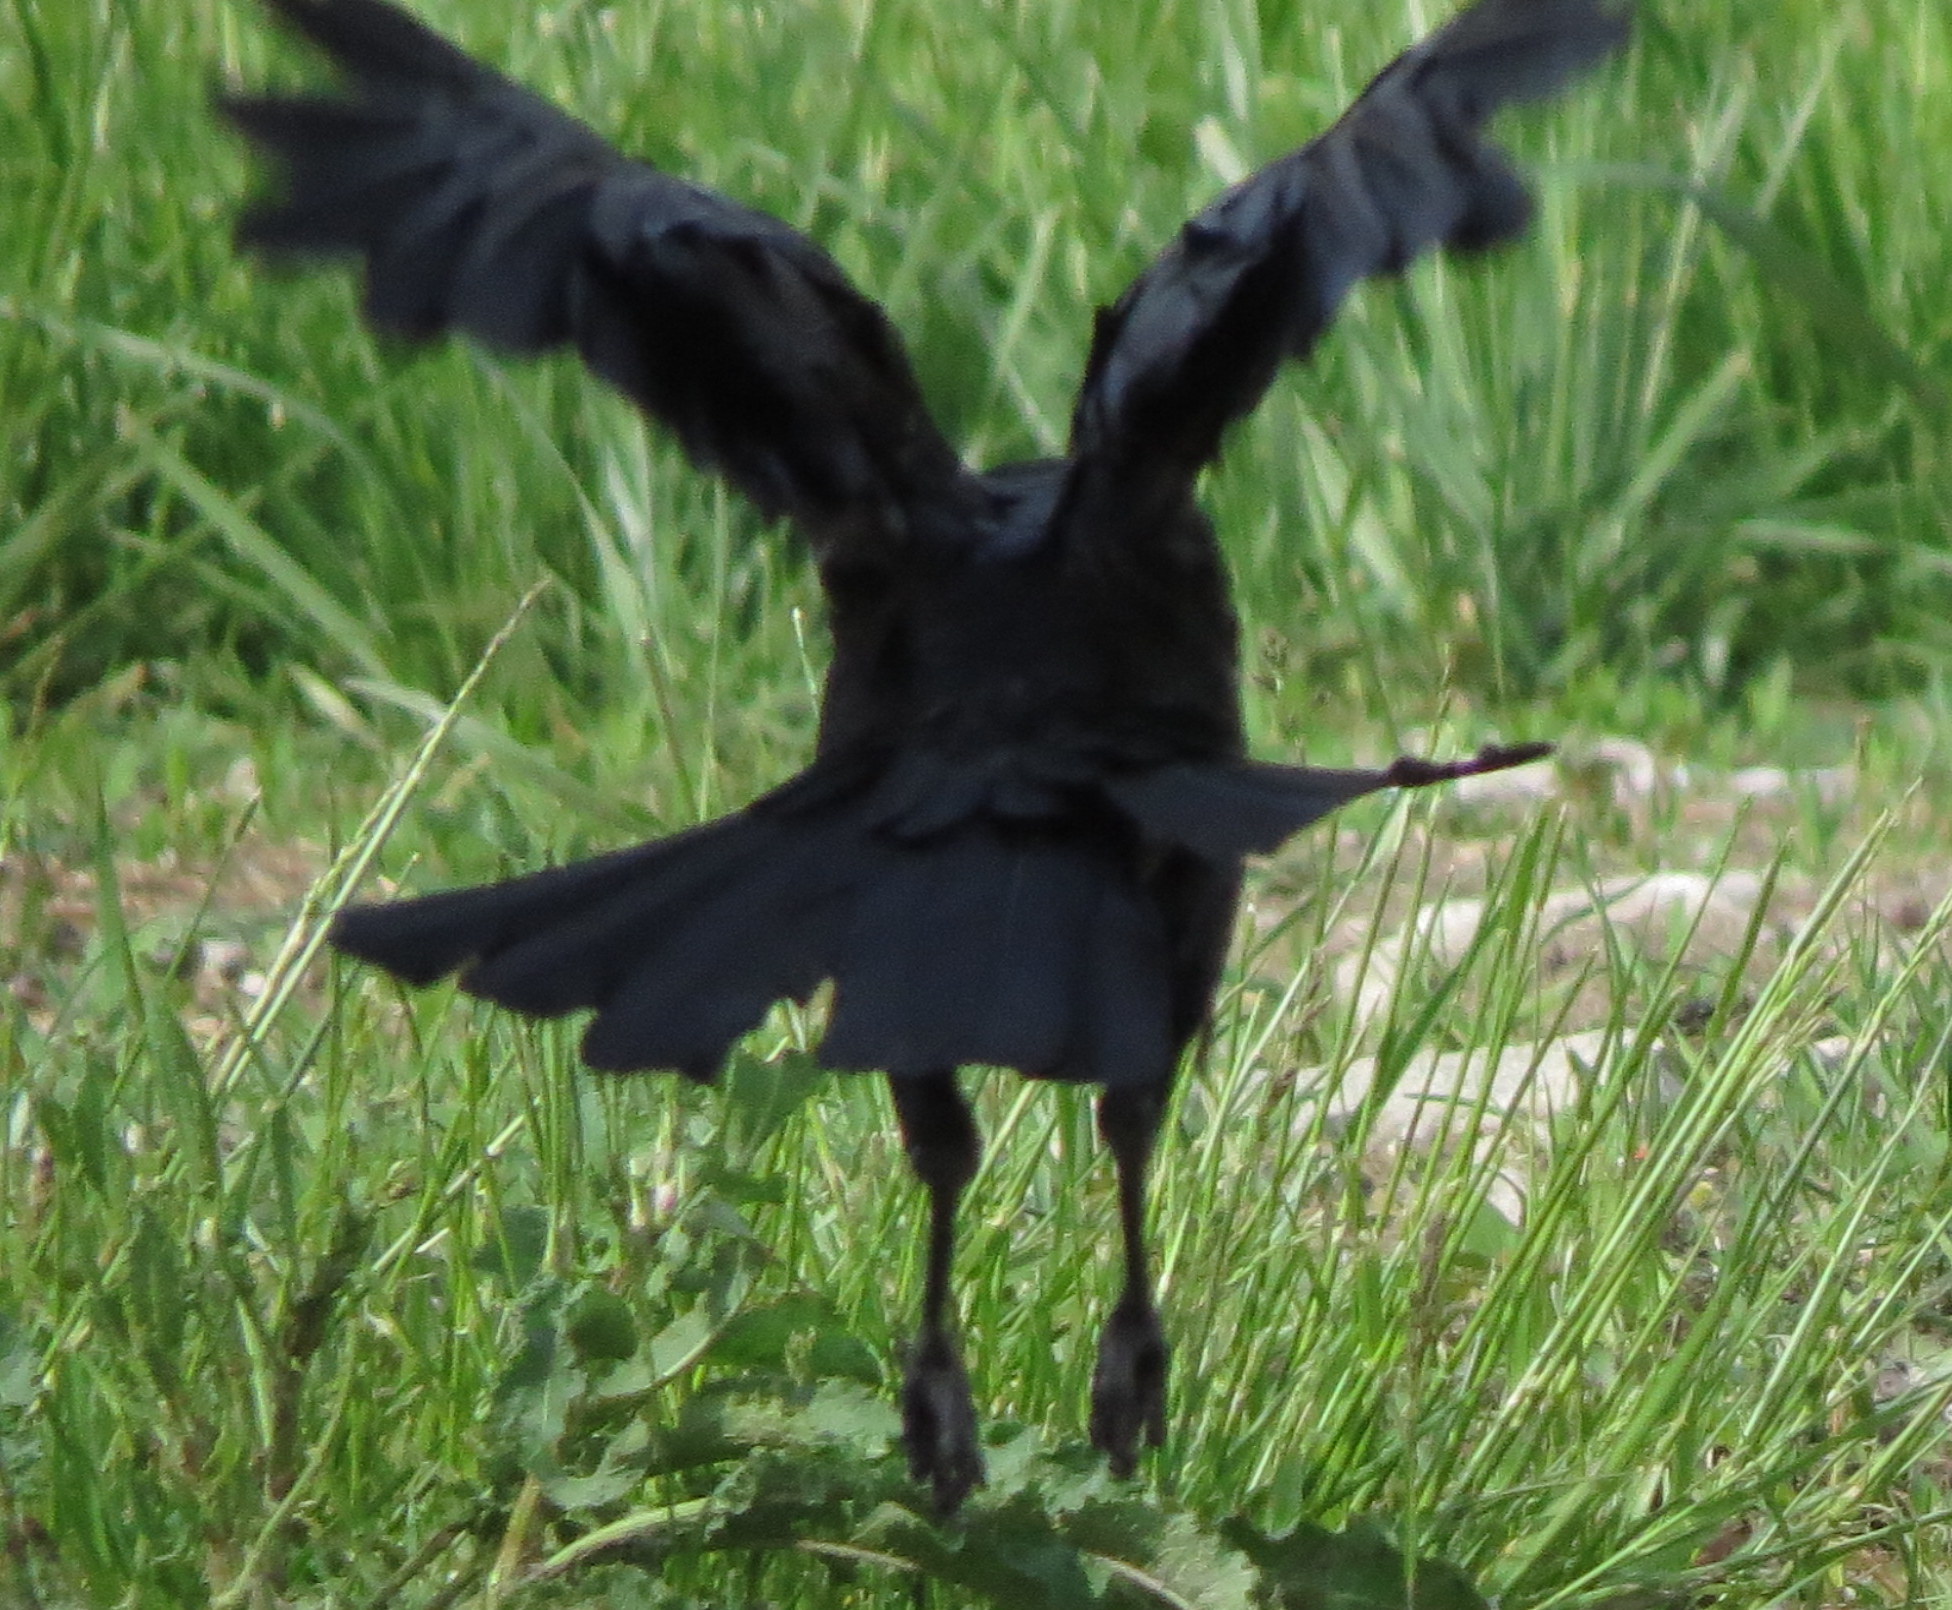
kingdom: Animalia
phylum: Chordata
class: Aves
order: Passeriformes
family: Corvidae
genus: Corvus
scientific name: Corvus brachyrhynchos
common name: American crow
